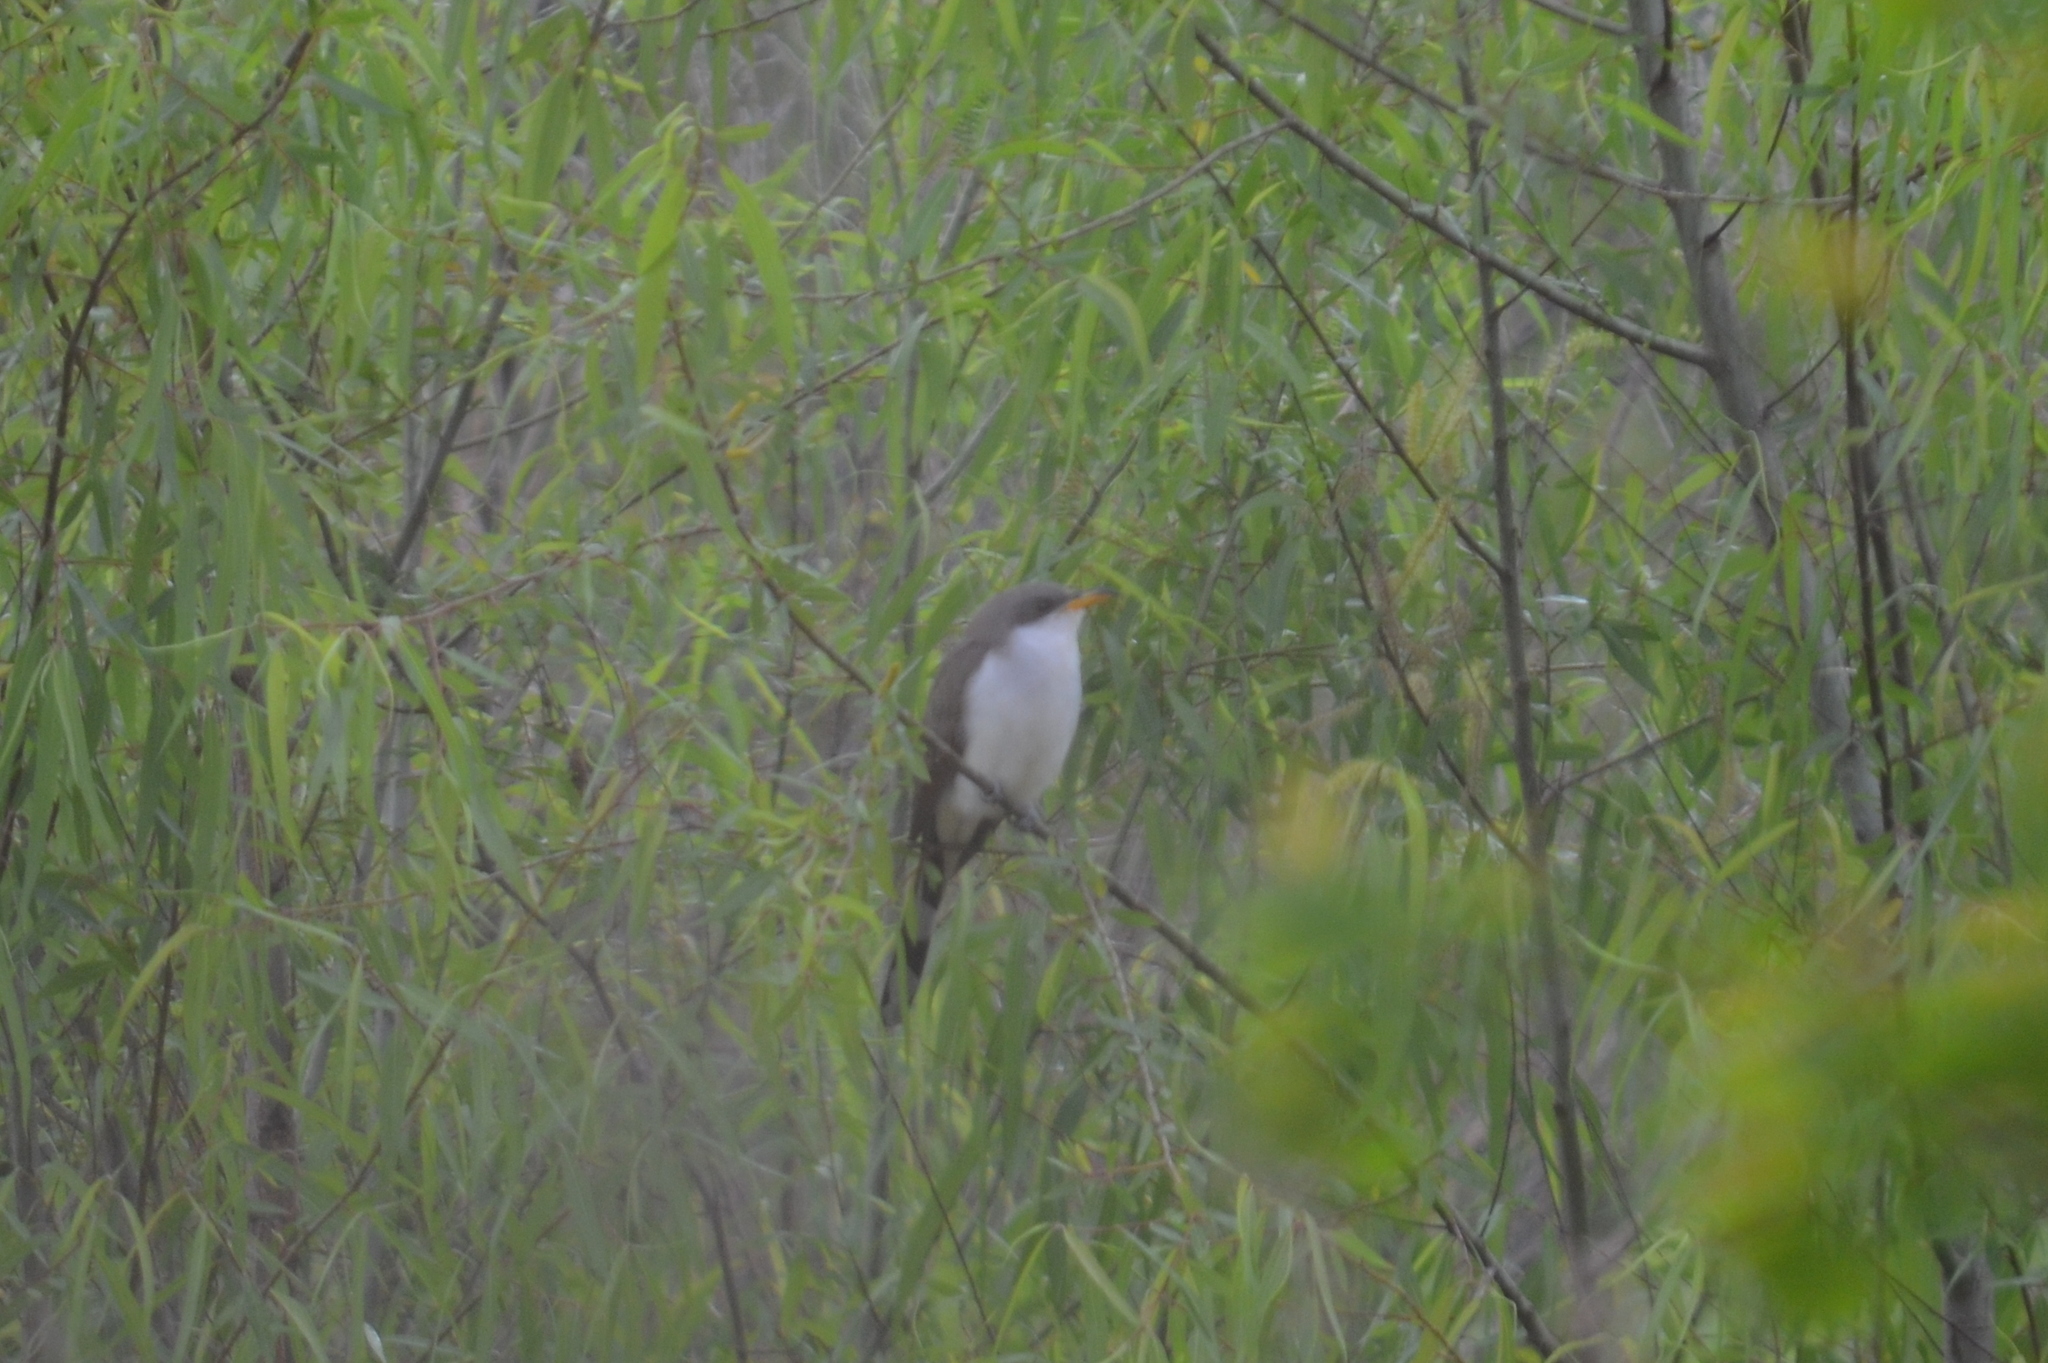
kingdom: Animalia
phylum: Chordata
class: Aves
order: Cuculiformes
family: Cuculidae
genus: Coccyzus
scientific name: Coccyzus americanus
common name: Yellow-billed cuckoo
